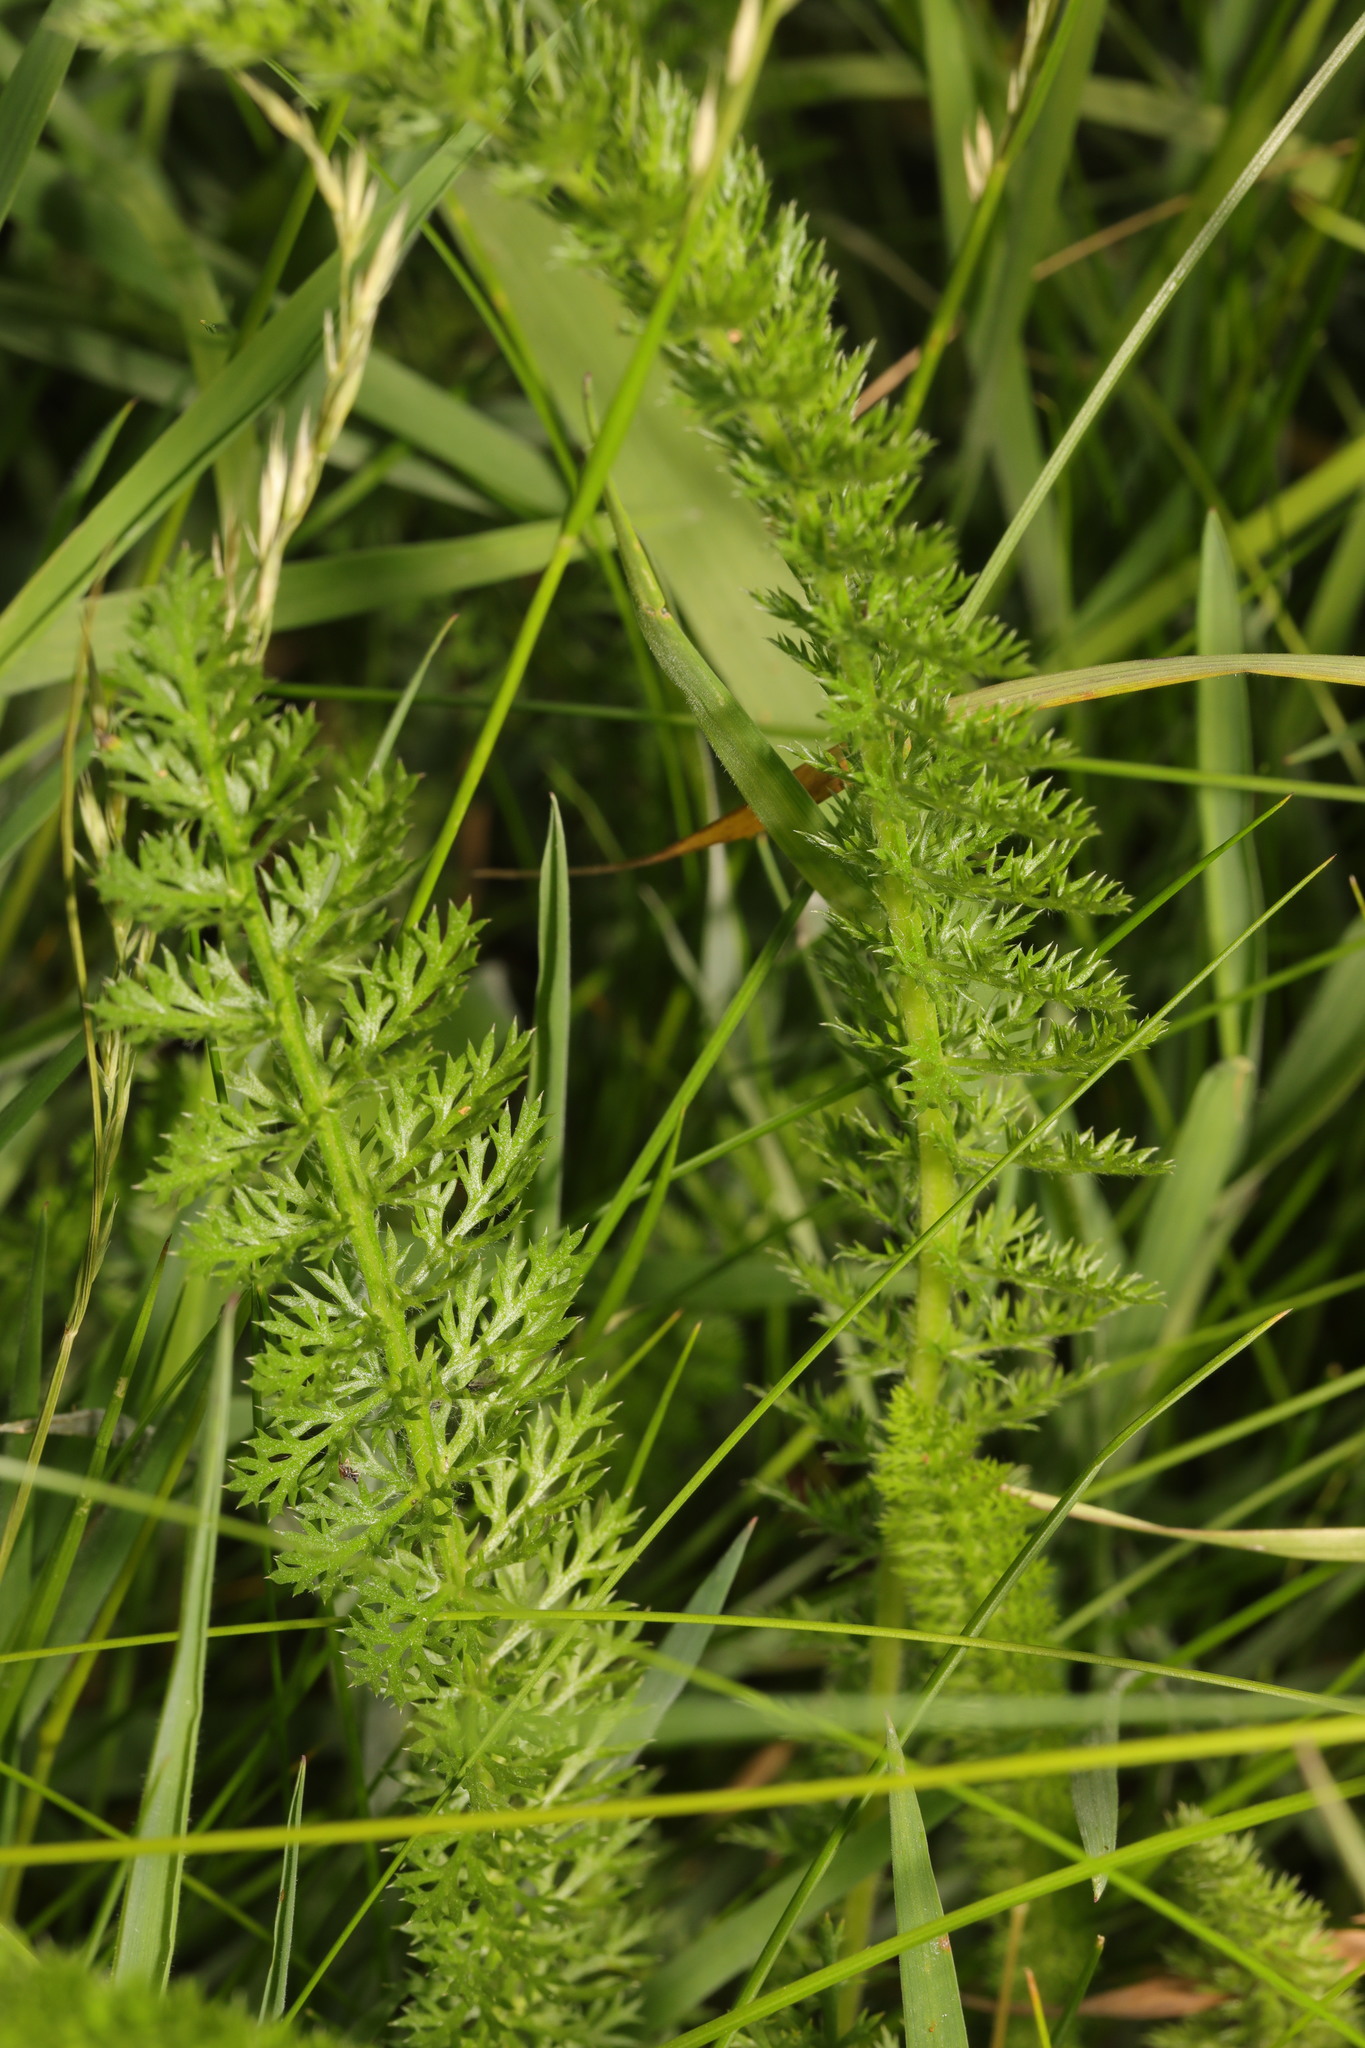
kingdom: Plantae
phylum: Tracheophyta
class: Magnoliopsida
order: Asterales
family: Asteraceae
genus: Achillea
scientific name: Achillea millefolium
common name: Yarrow
